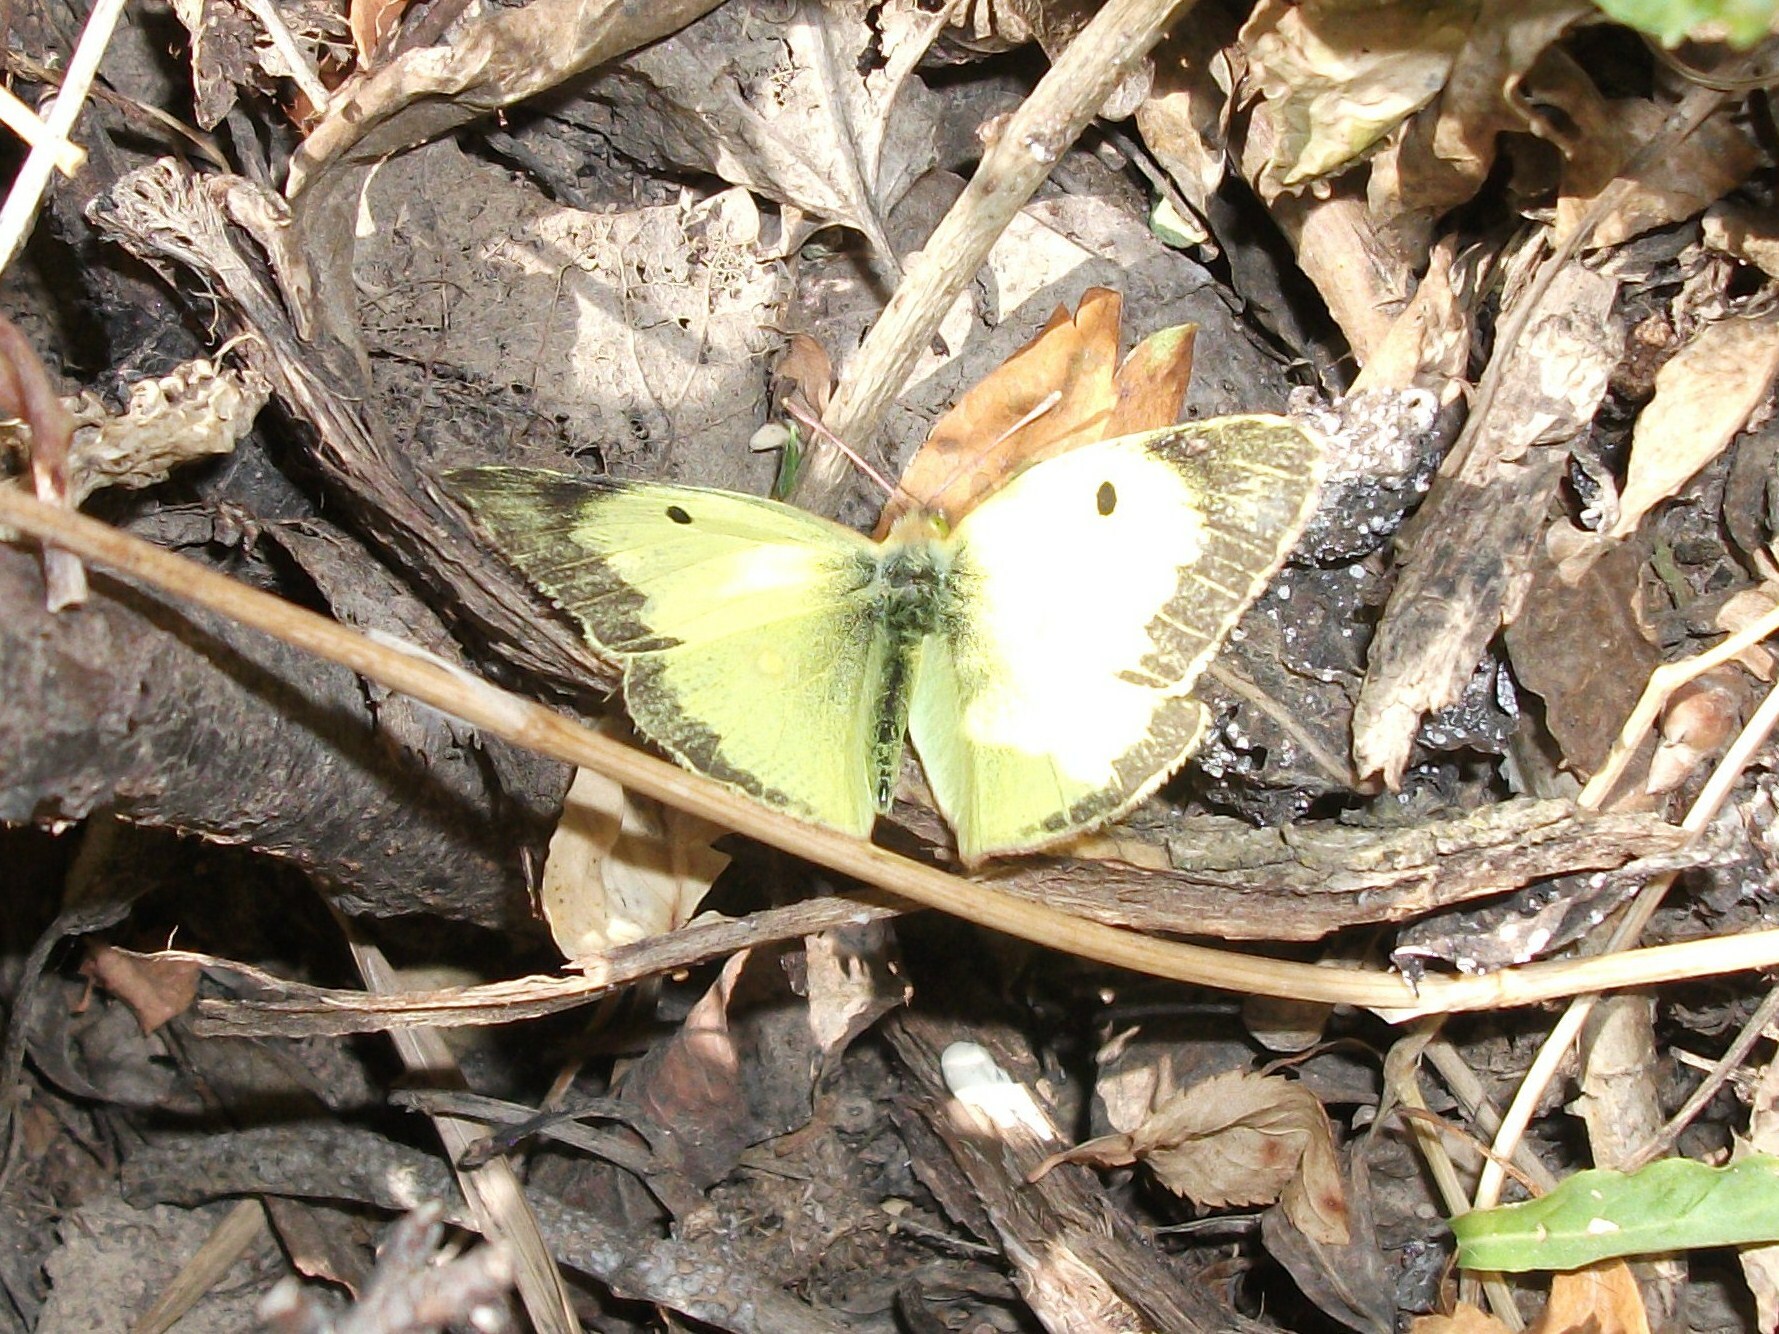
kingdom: Animalia
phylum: Arthropoda
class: Insecta
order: Lepidoptera
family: Pieridae
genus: Colias
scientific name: Colias erate
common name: Eastern pale clouded yellow
